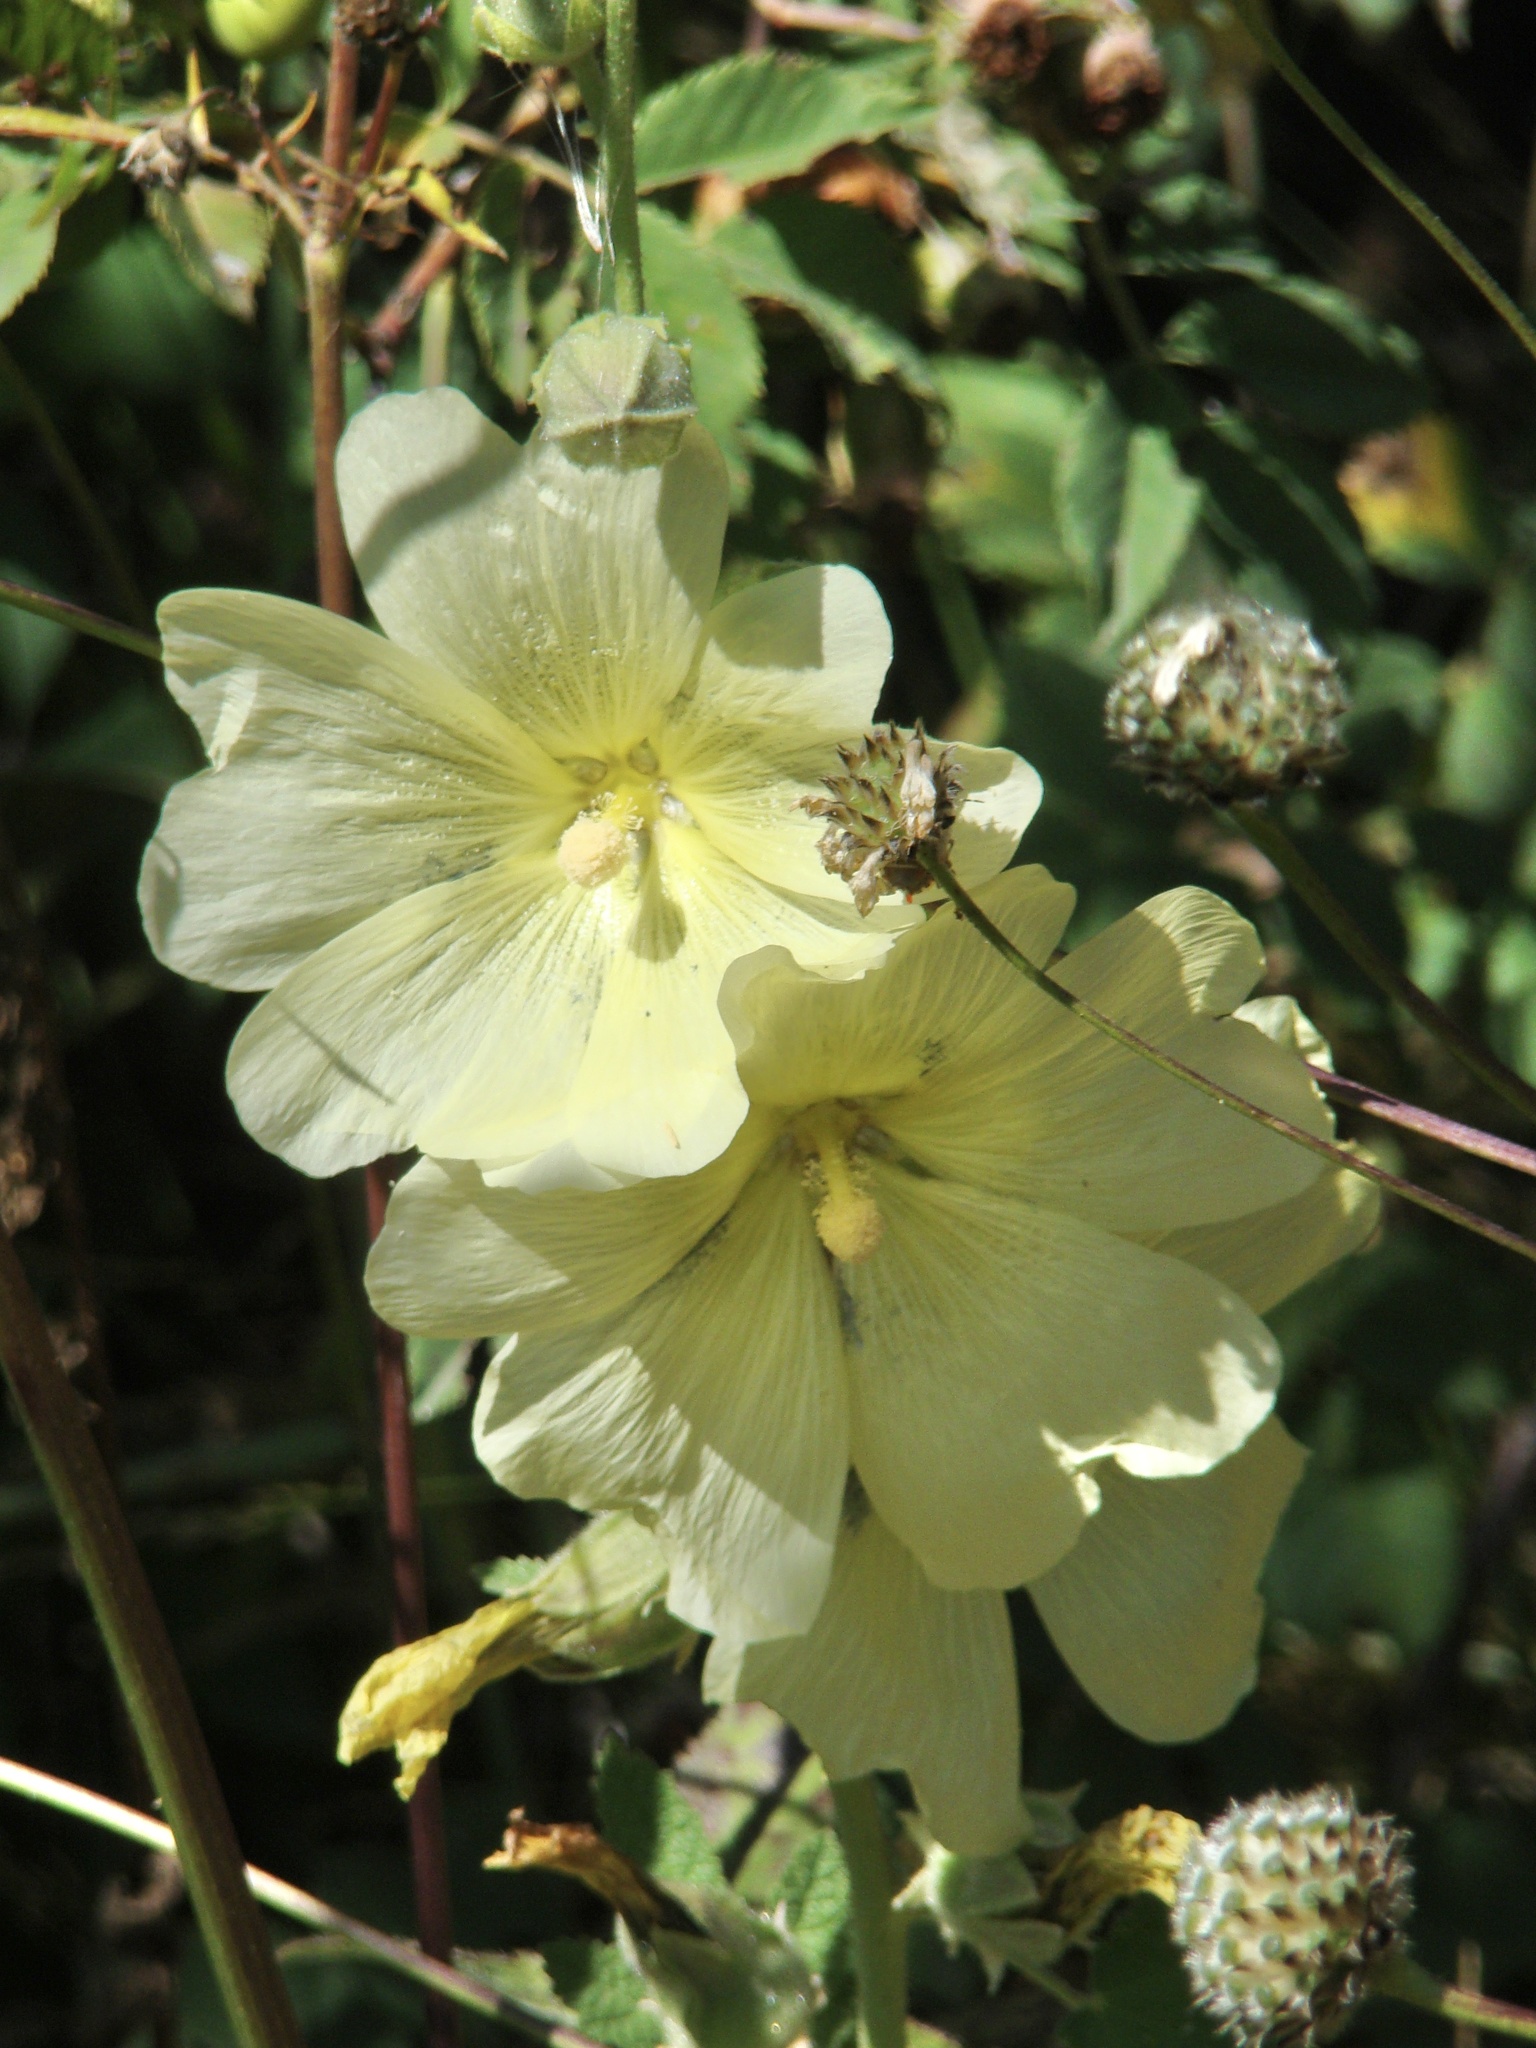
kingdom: Plantae
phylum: Tracheophyta
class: Magnoliopsida
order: Malvales
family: Malvaceae
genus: Alcea
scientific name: Alcea rugosa
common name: Russian hollyhock
